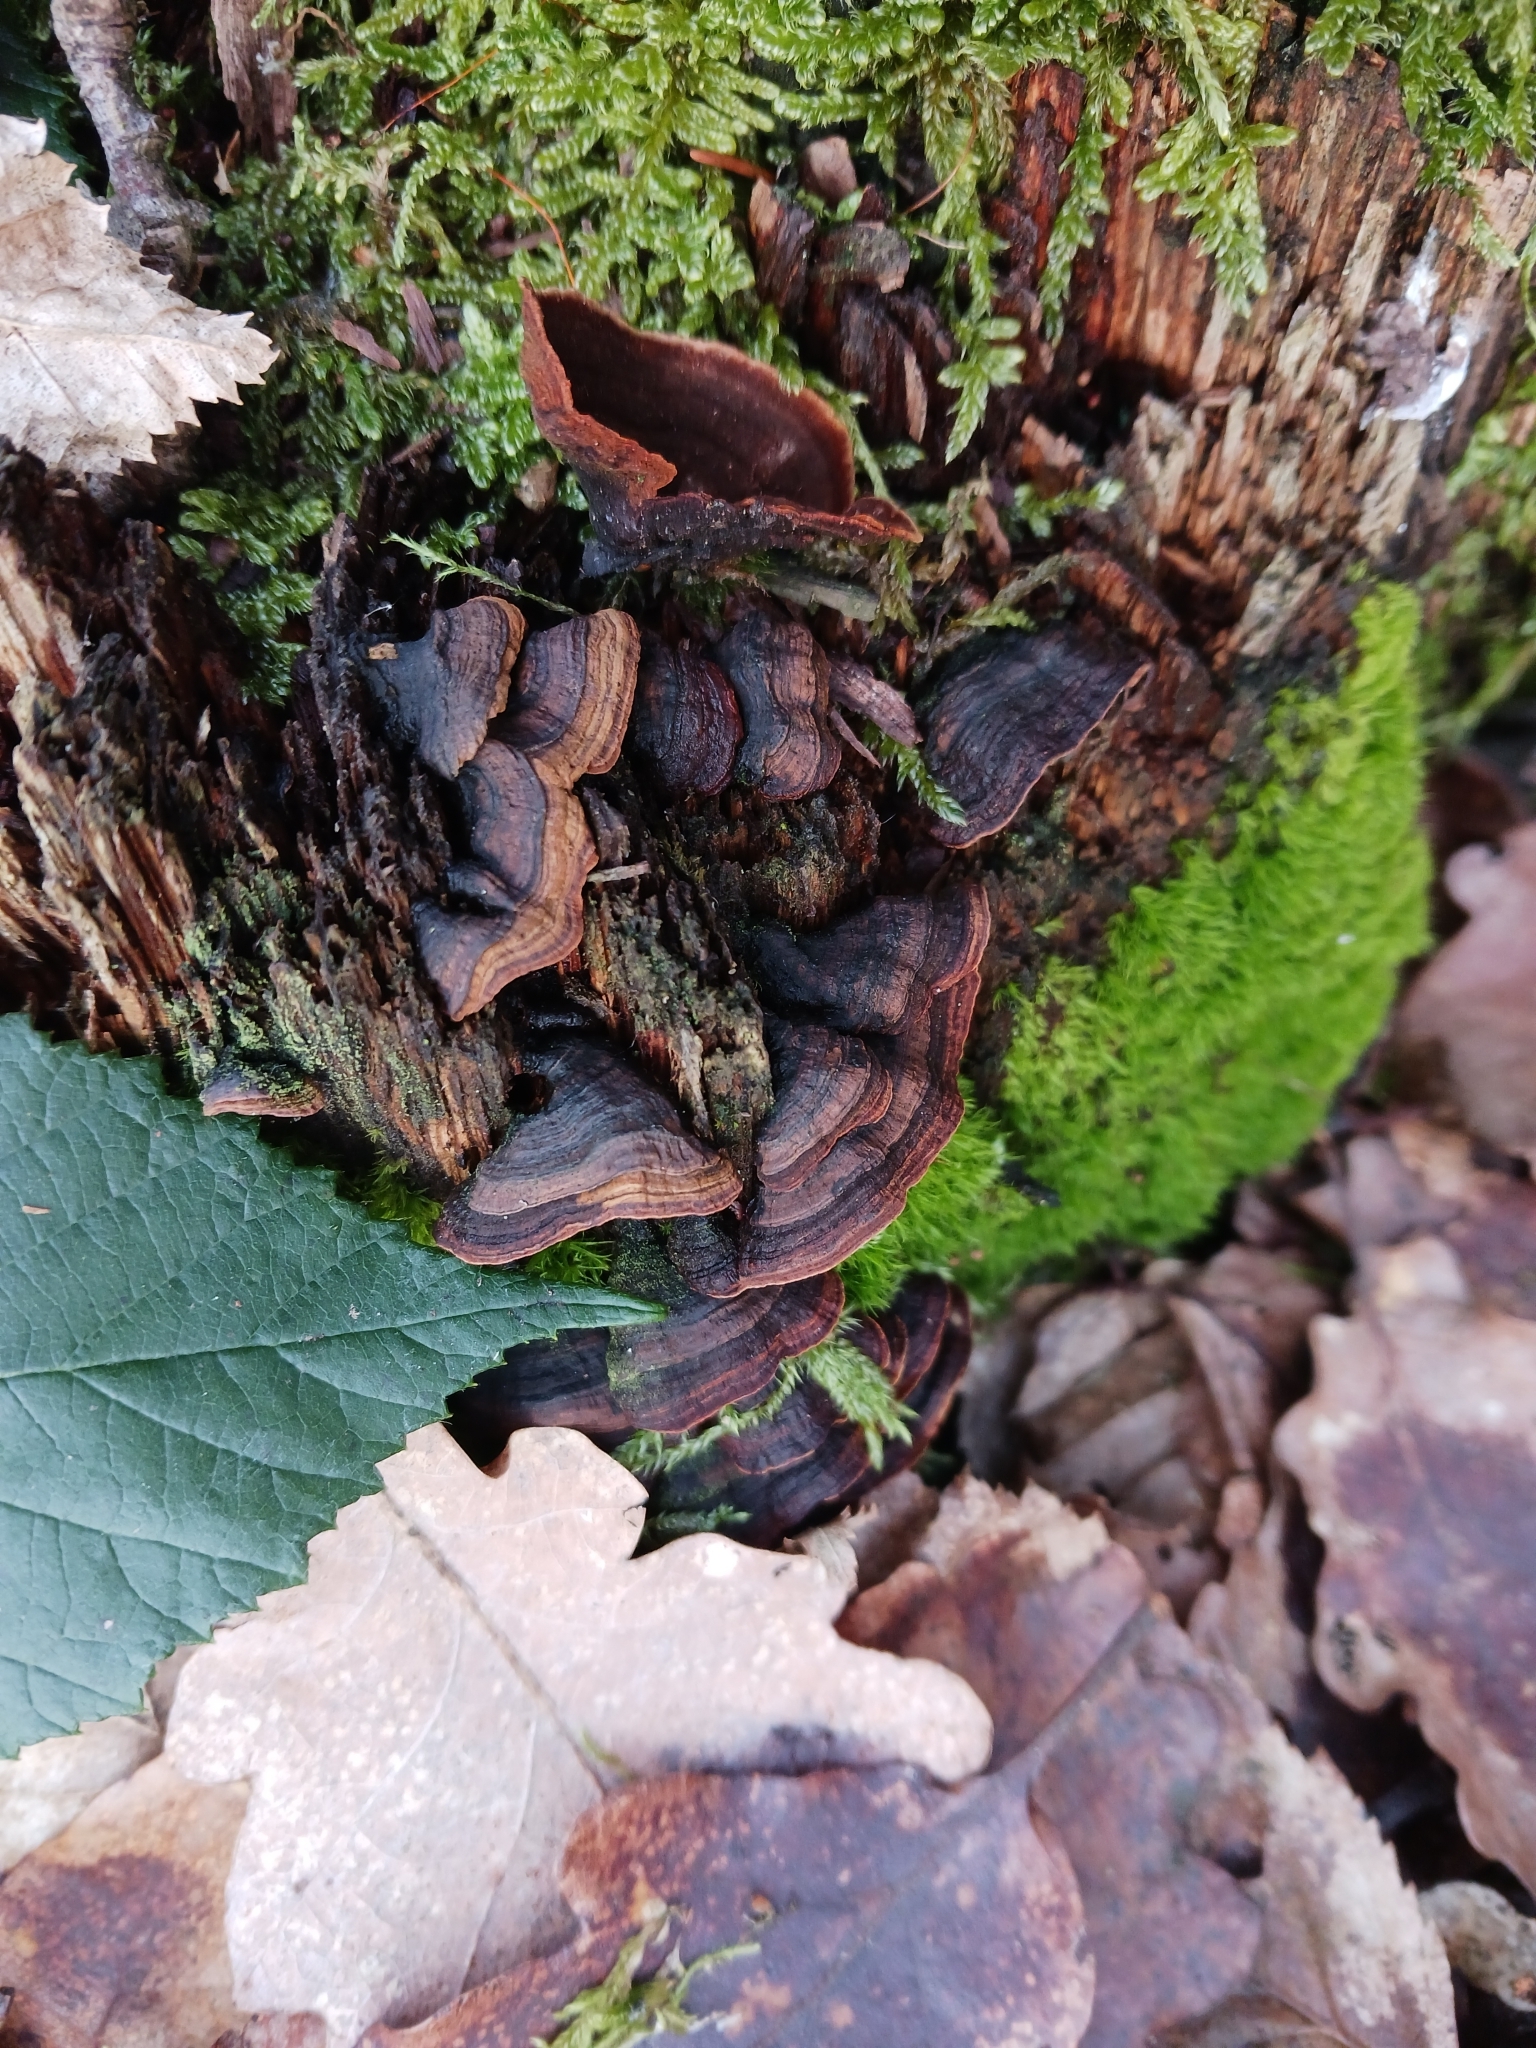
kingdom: Fungi
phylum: Basidiomycota
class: Agaricomycetes
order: Hymenochaetales
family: Hymenochaetaceae
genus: Hymenochaete
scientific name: Hymenochaete rubiginosa
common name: Oak curtain crust
